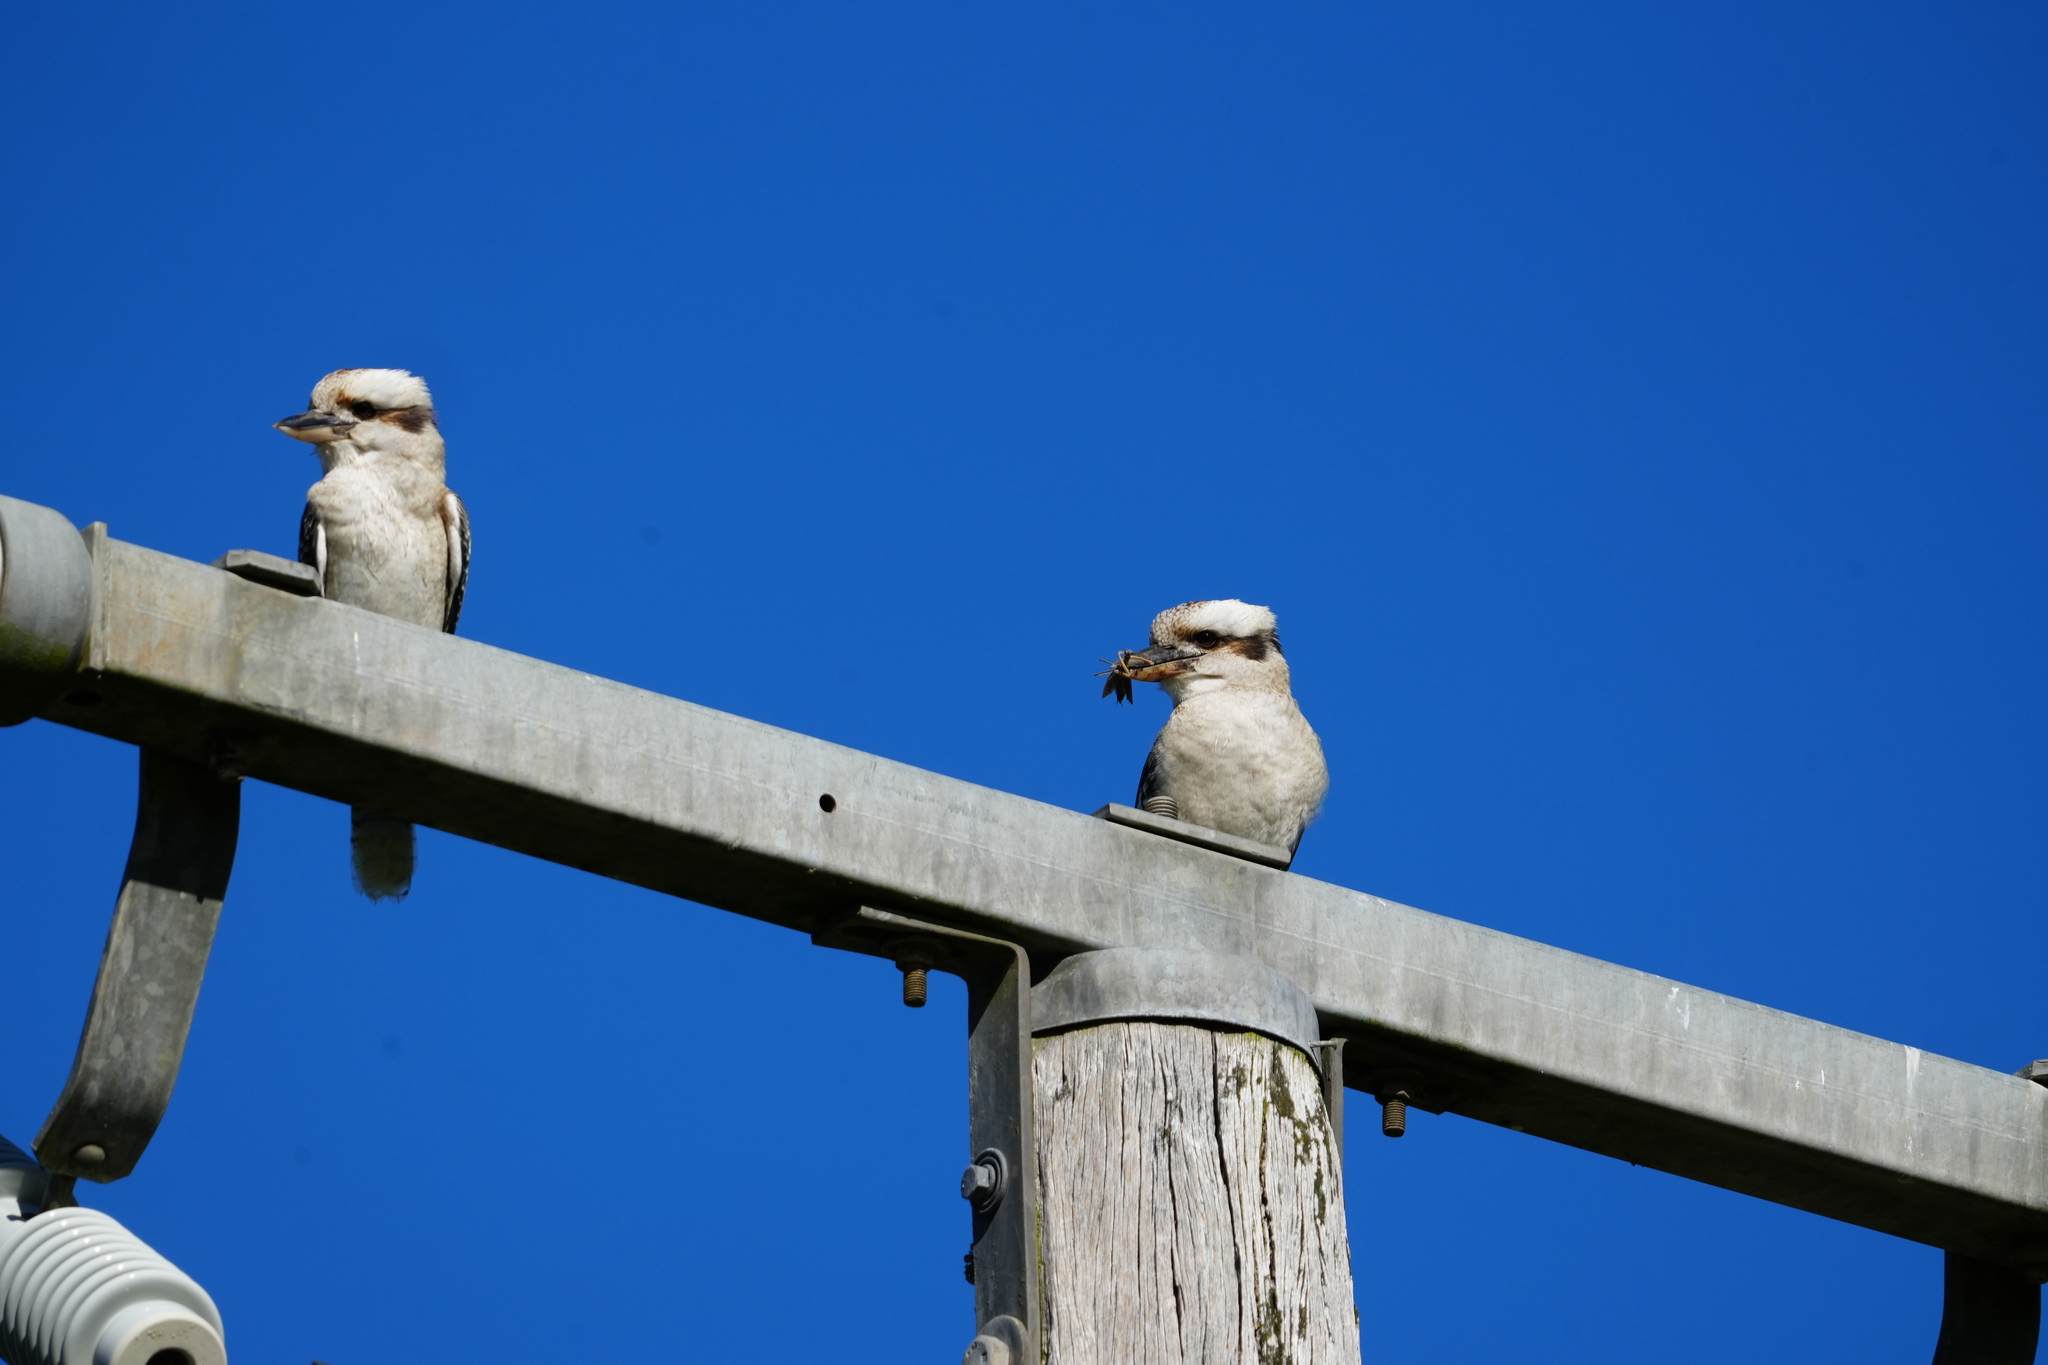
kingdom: Animalia
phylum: Chordata
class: Aves
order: Coraciiformes
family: Alcedinidae
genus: Dacelo
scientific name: Dacelo novaeguineae
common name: Laughing kookaburra
